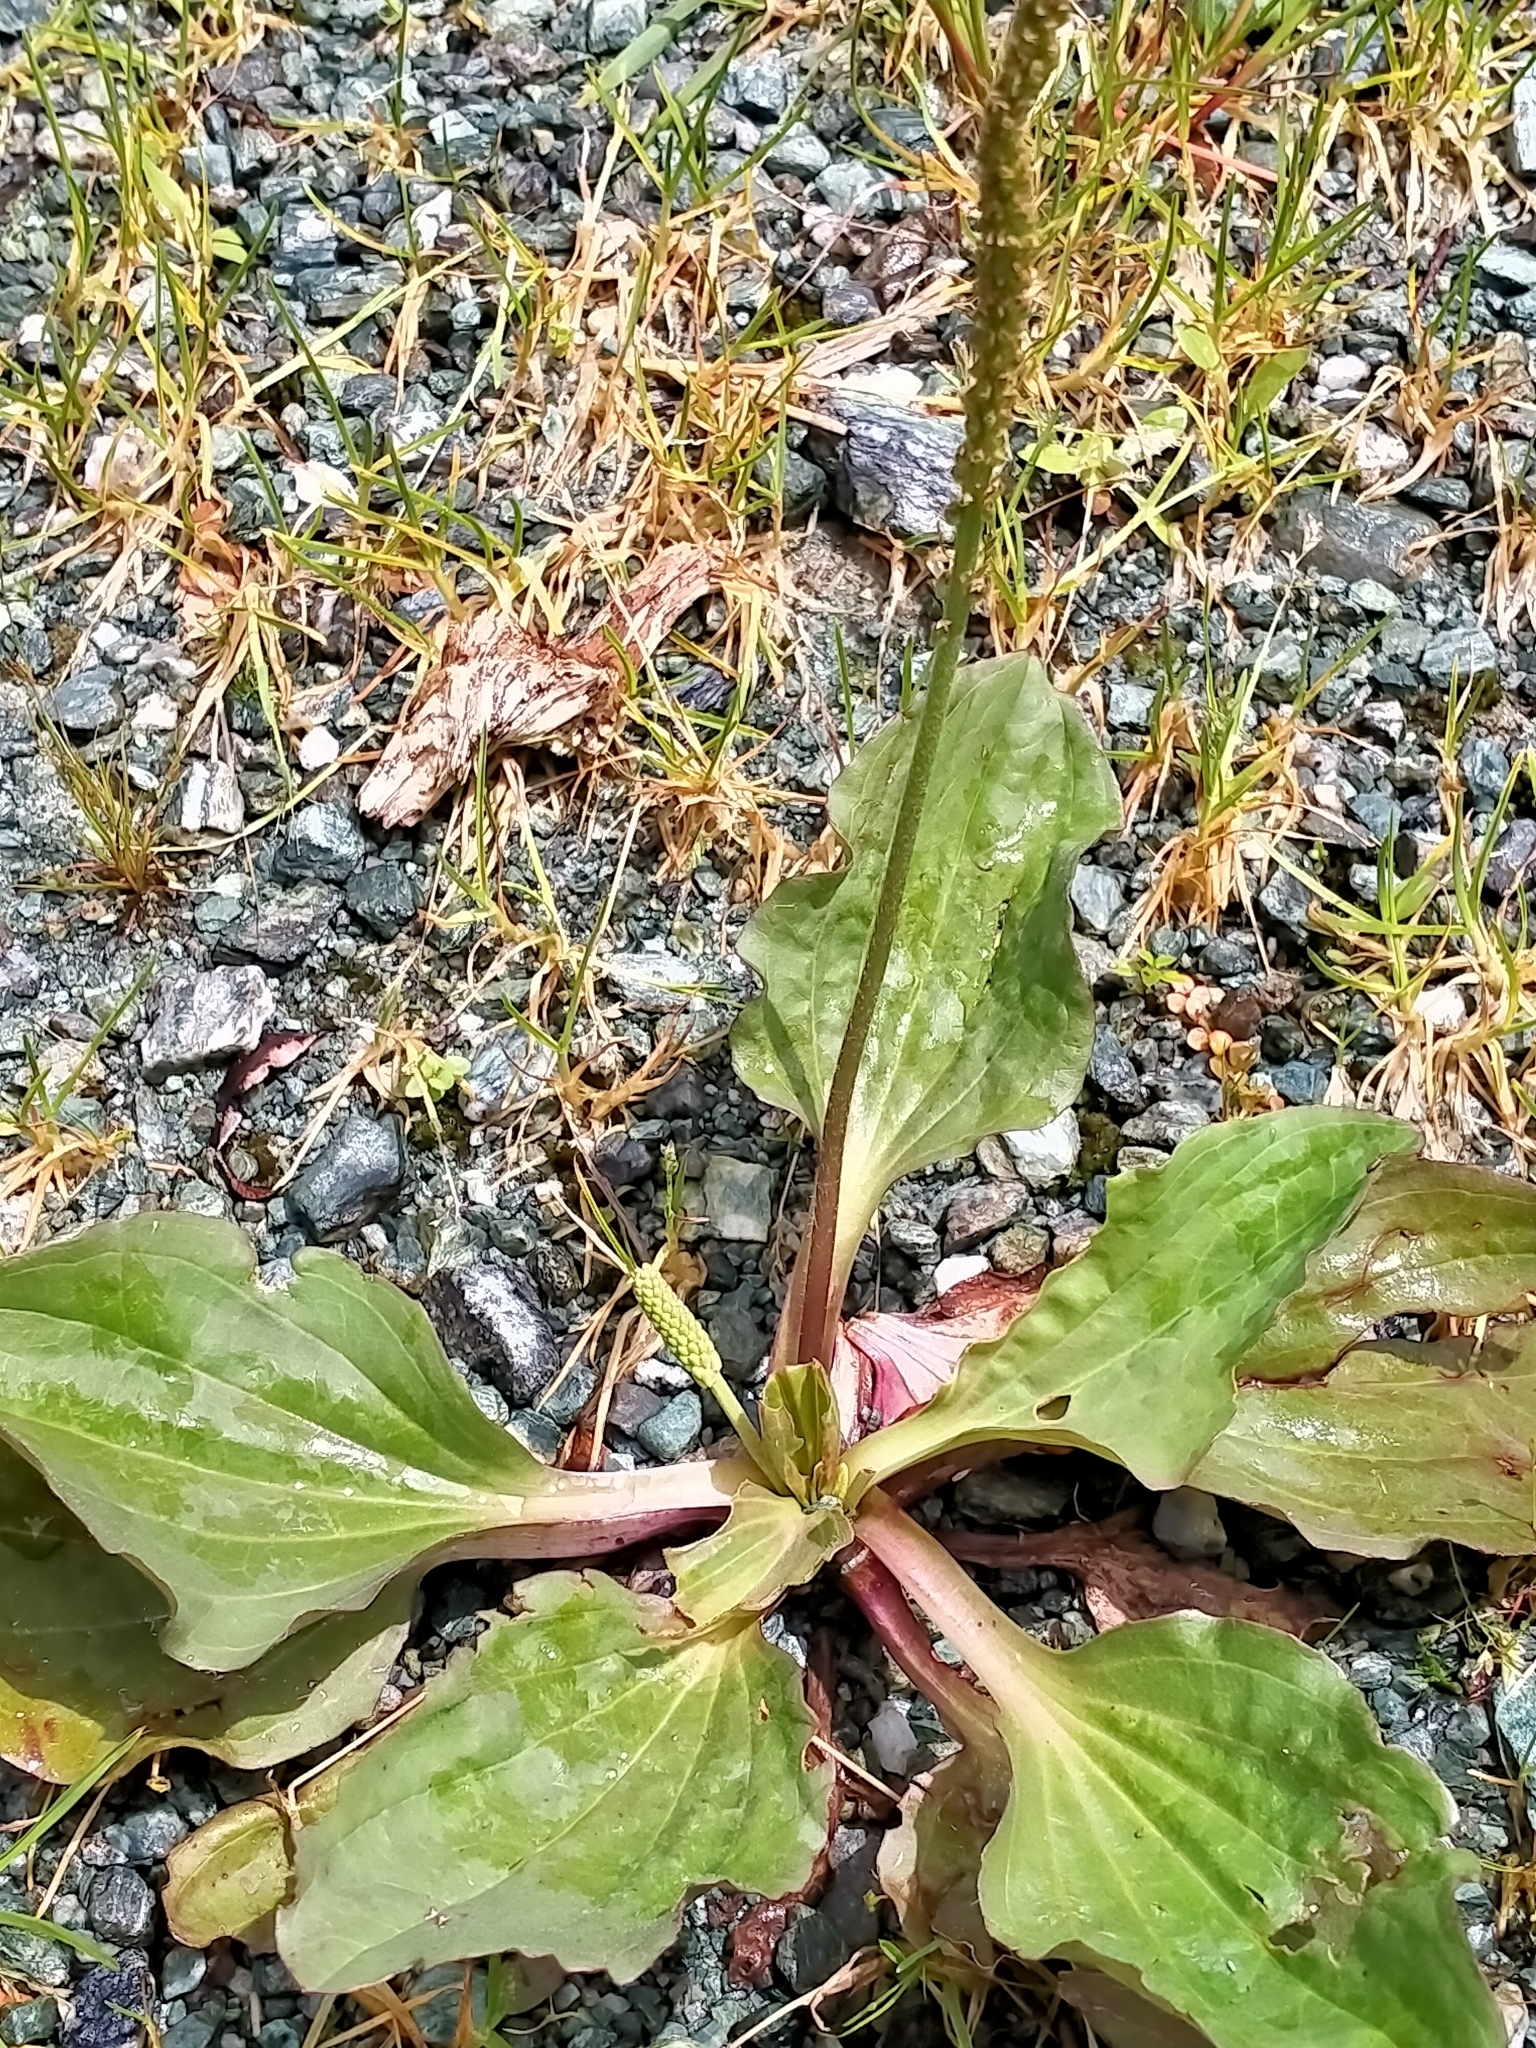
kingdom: Plantae
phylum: Tracheophyta
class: Magnoliopsida
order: Lamiales
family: Plantaginaceae
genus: Plantago
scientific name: Plantago major
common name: Common plantain
